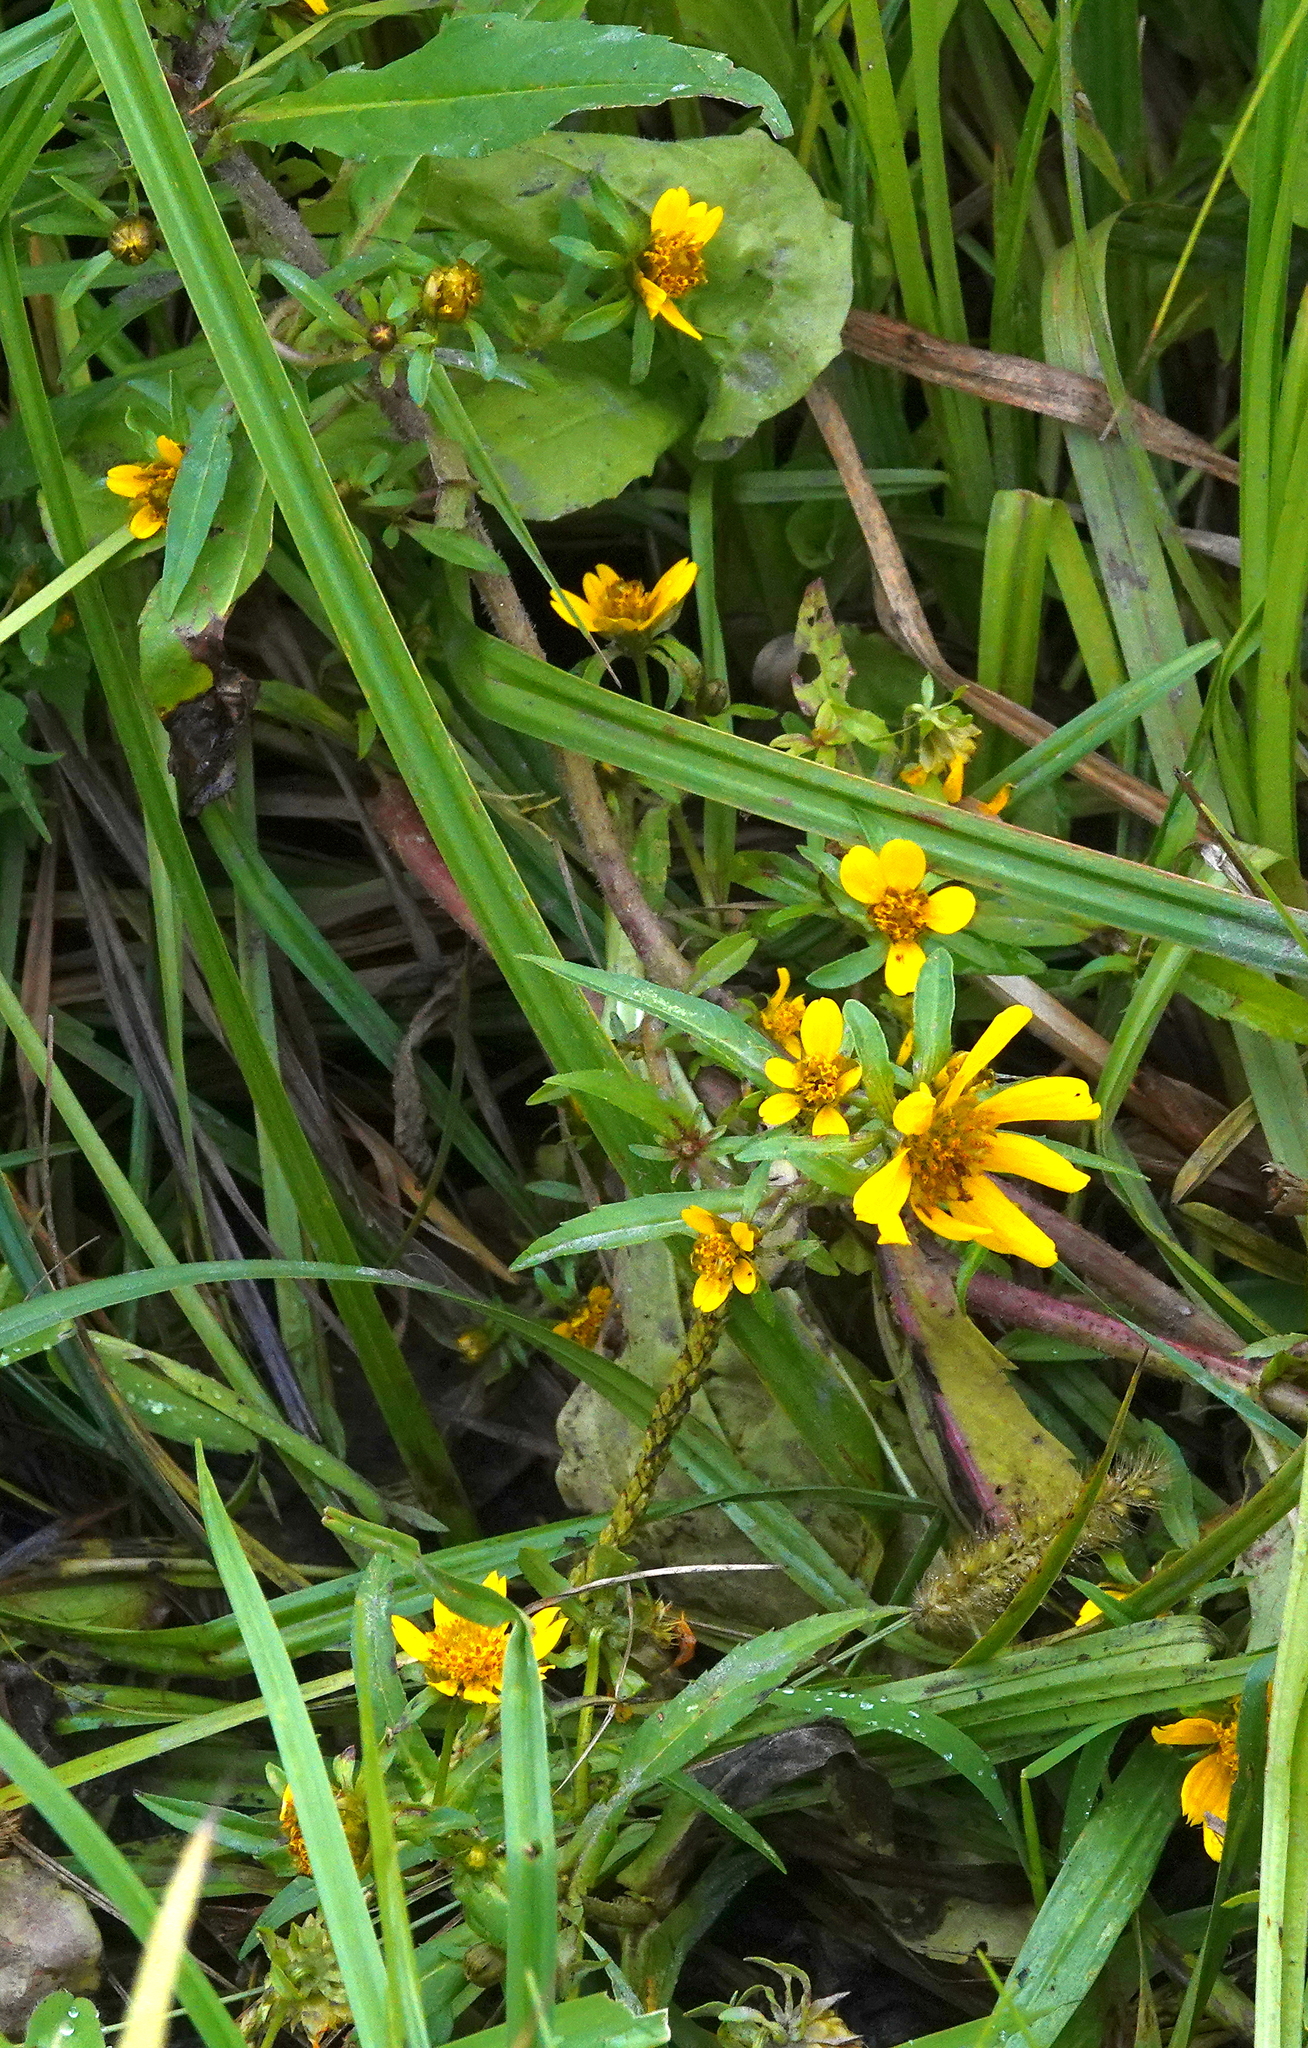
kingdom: Plantae
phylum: Tracheophyta
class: Magnoliopsida
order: Asterales
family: Asteraceae
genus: Bidens
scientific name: Bidens cernua
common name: Nodding bur-marigold
